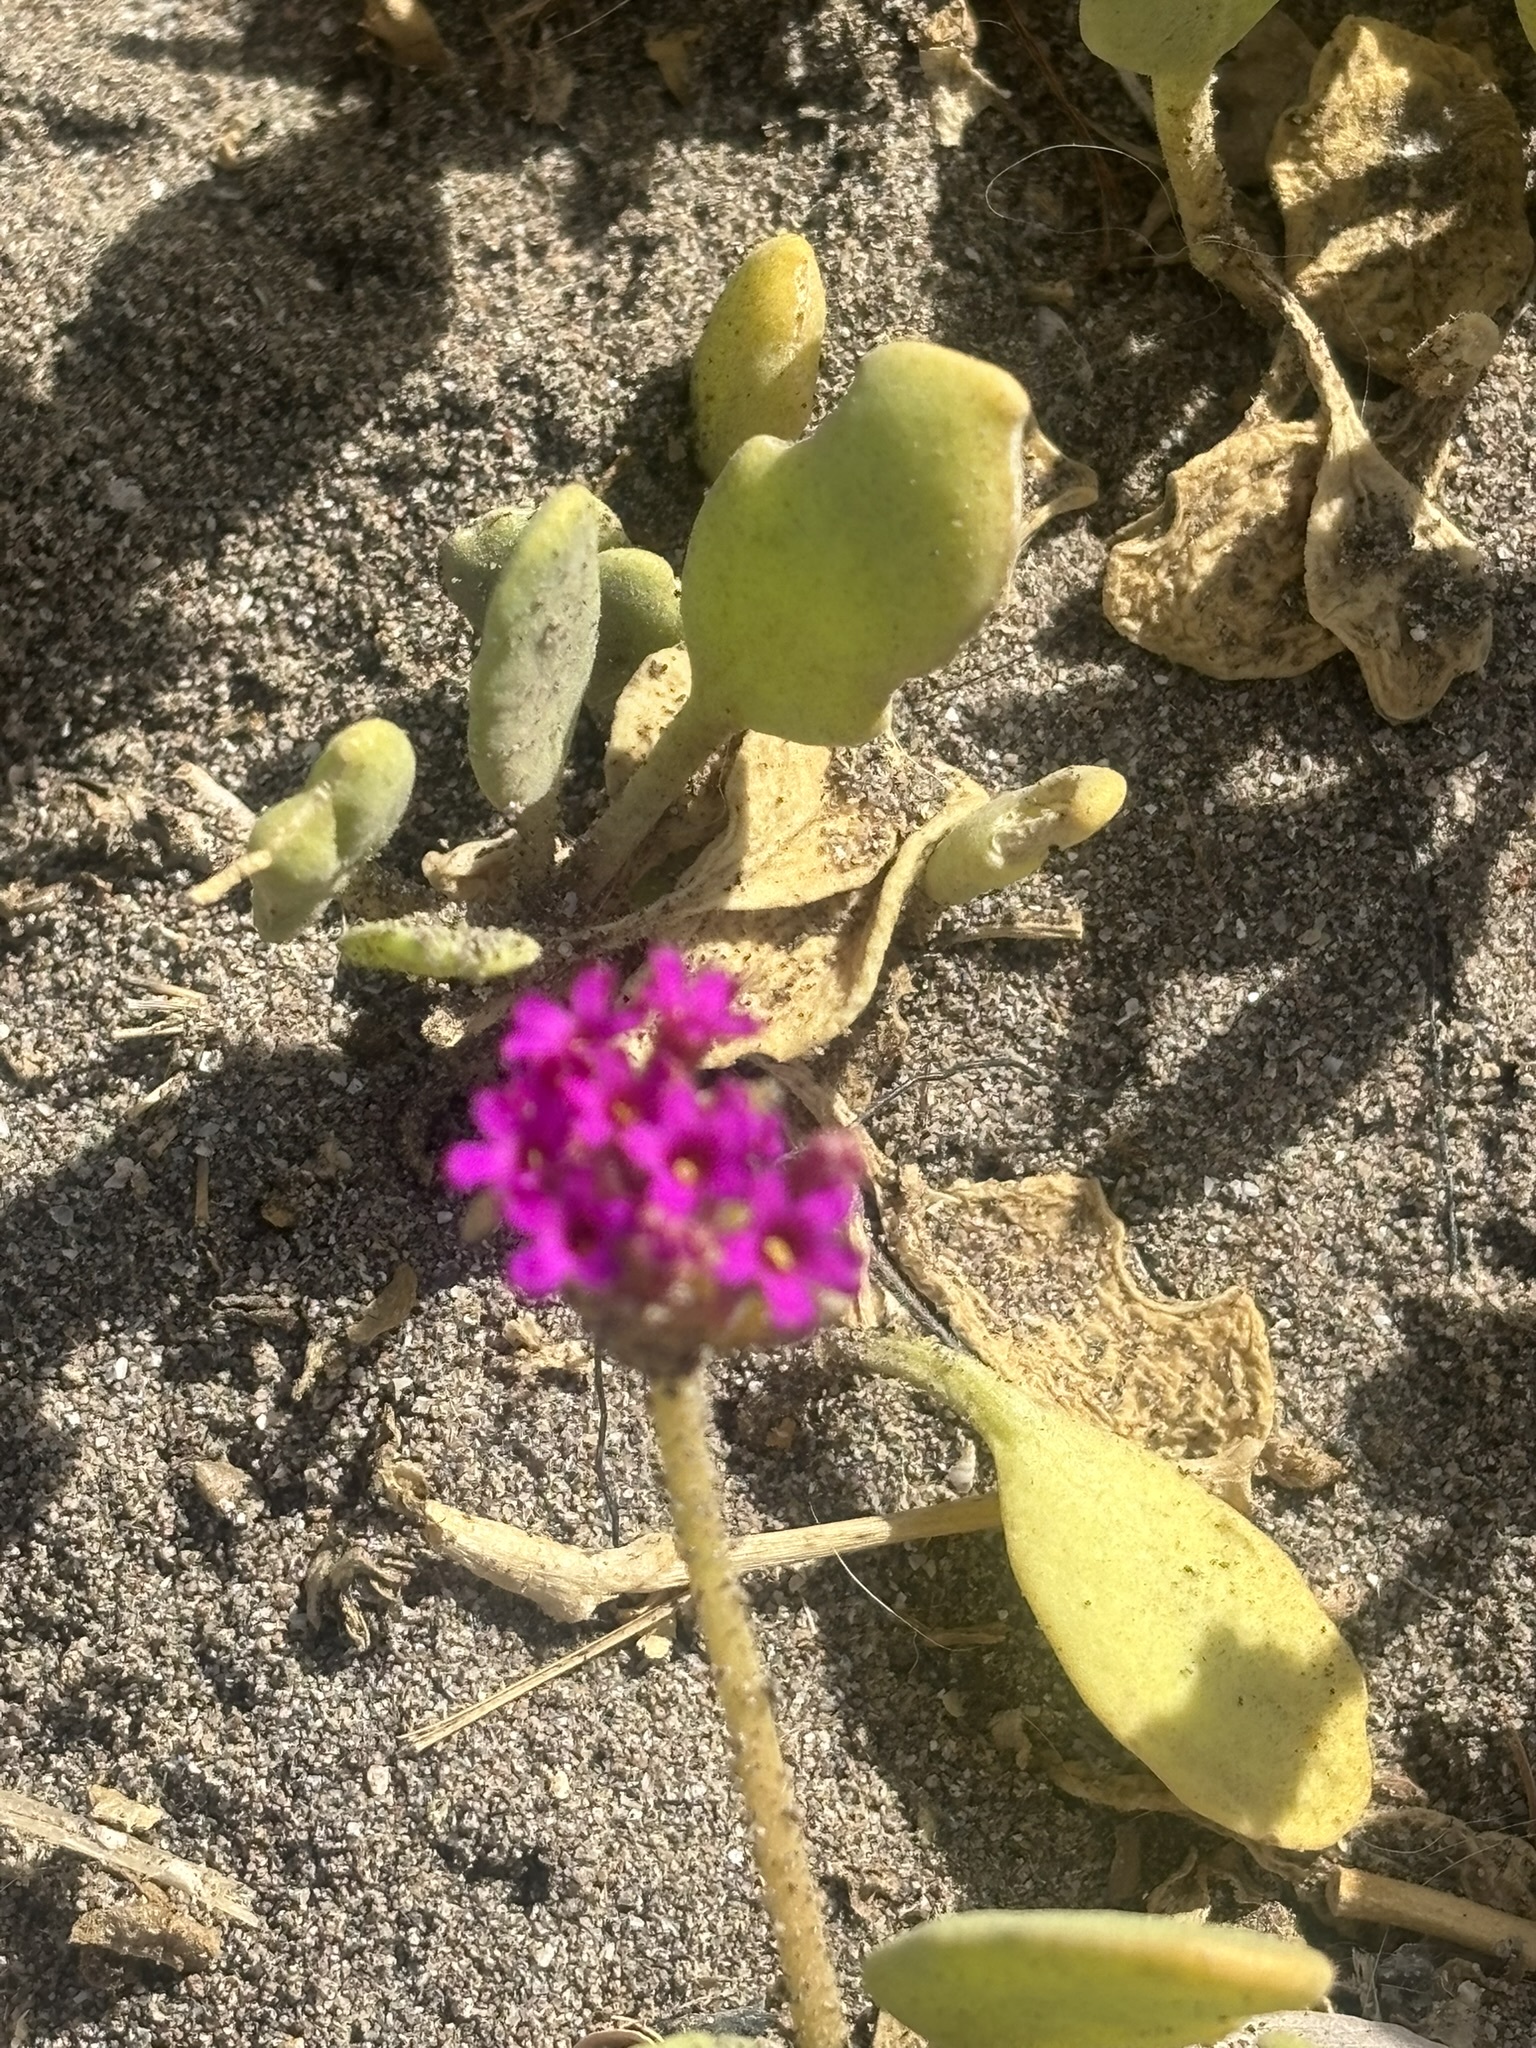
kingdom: Plantae
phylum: Tracheophyta
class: Magnoliopsida
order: Caryophyllales
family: Nyctaginaceae
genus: Abronia
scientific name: Abronia maritima
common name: Red sand-verbena
